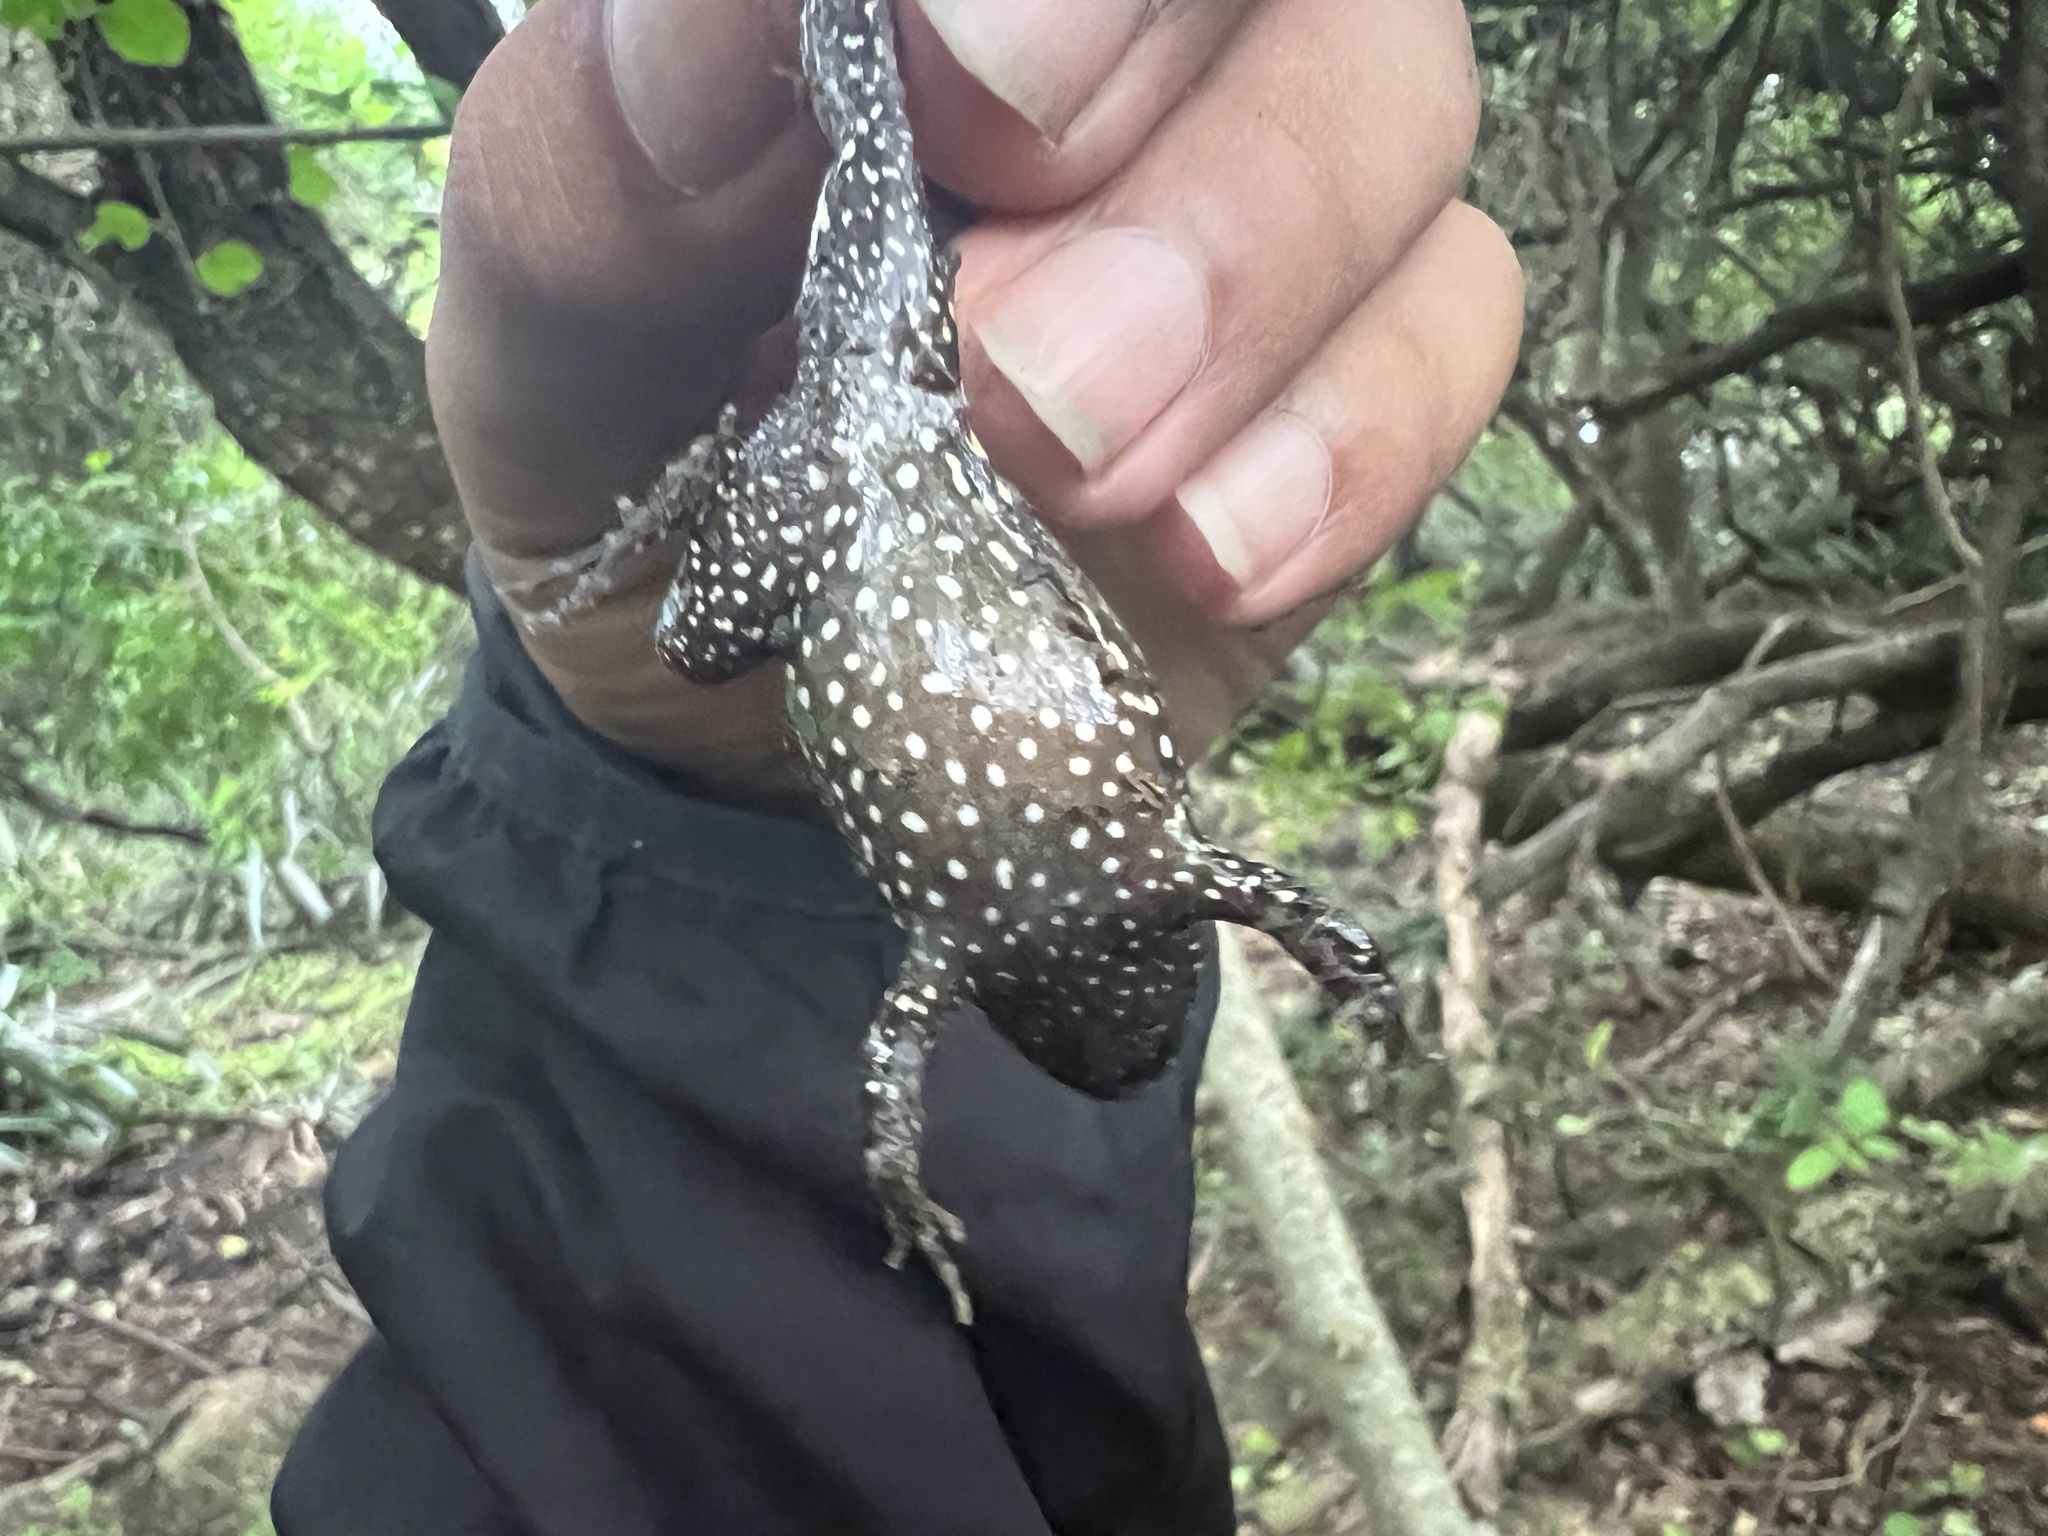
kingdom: Animalia
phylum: Chordata
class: Amphibia
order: Anura
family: Leptodactylidae
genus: Leptodactylus
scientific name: Leptodactylus podicipinus
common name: Pointedbelly frog
